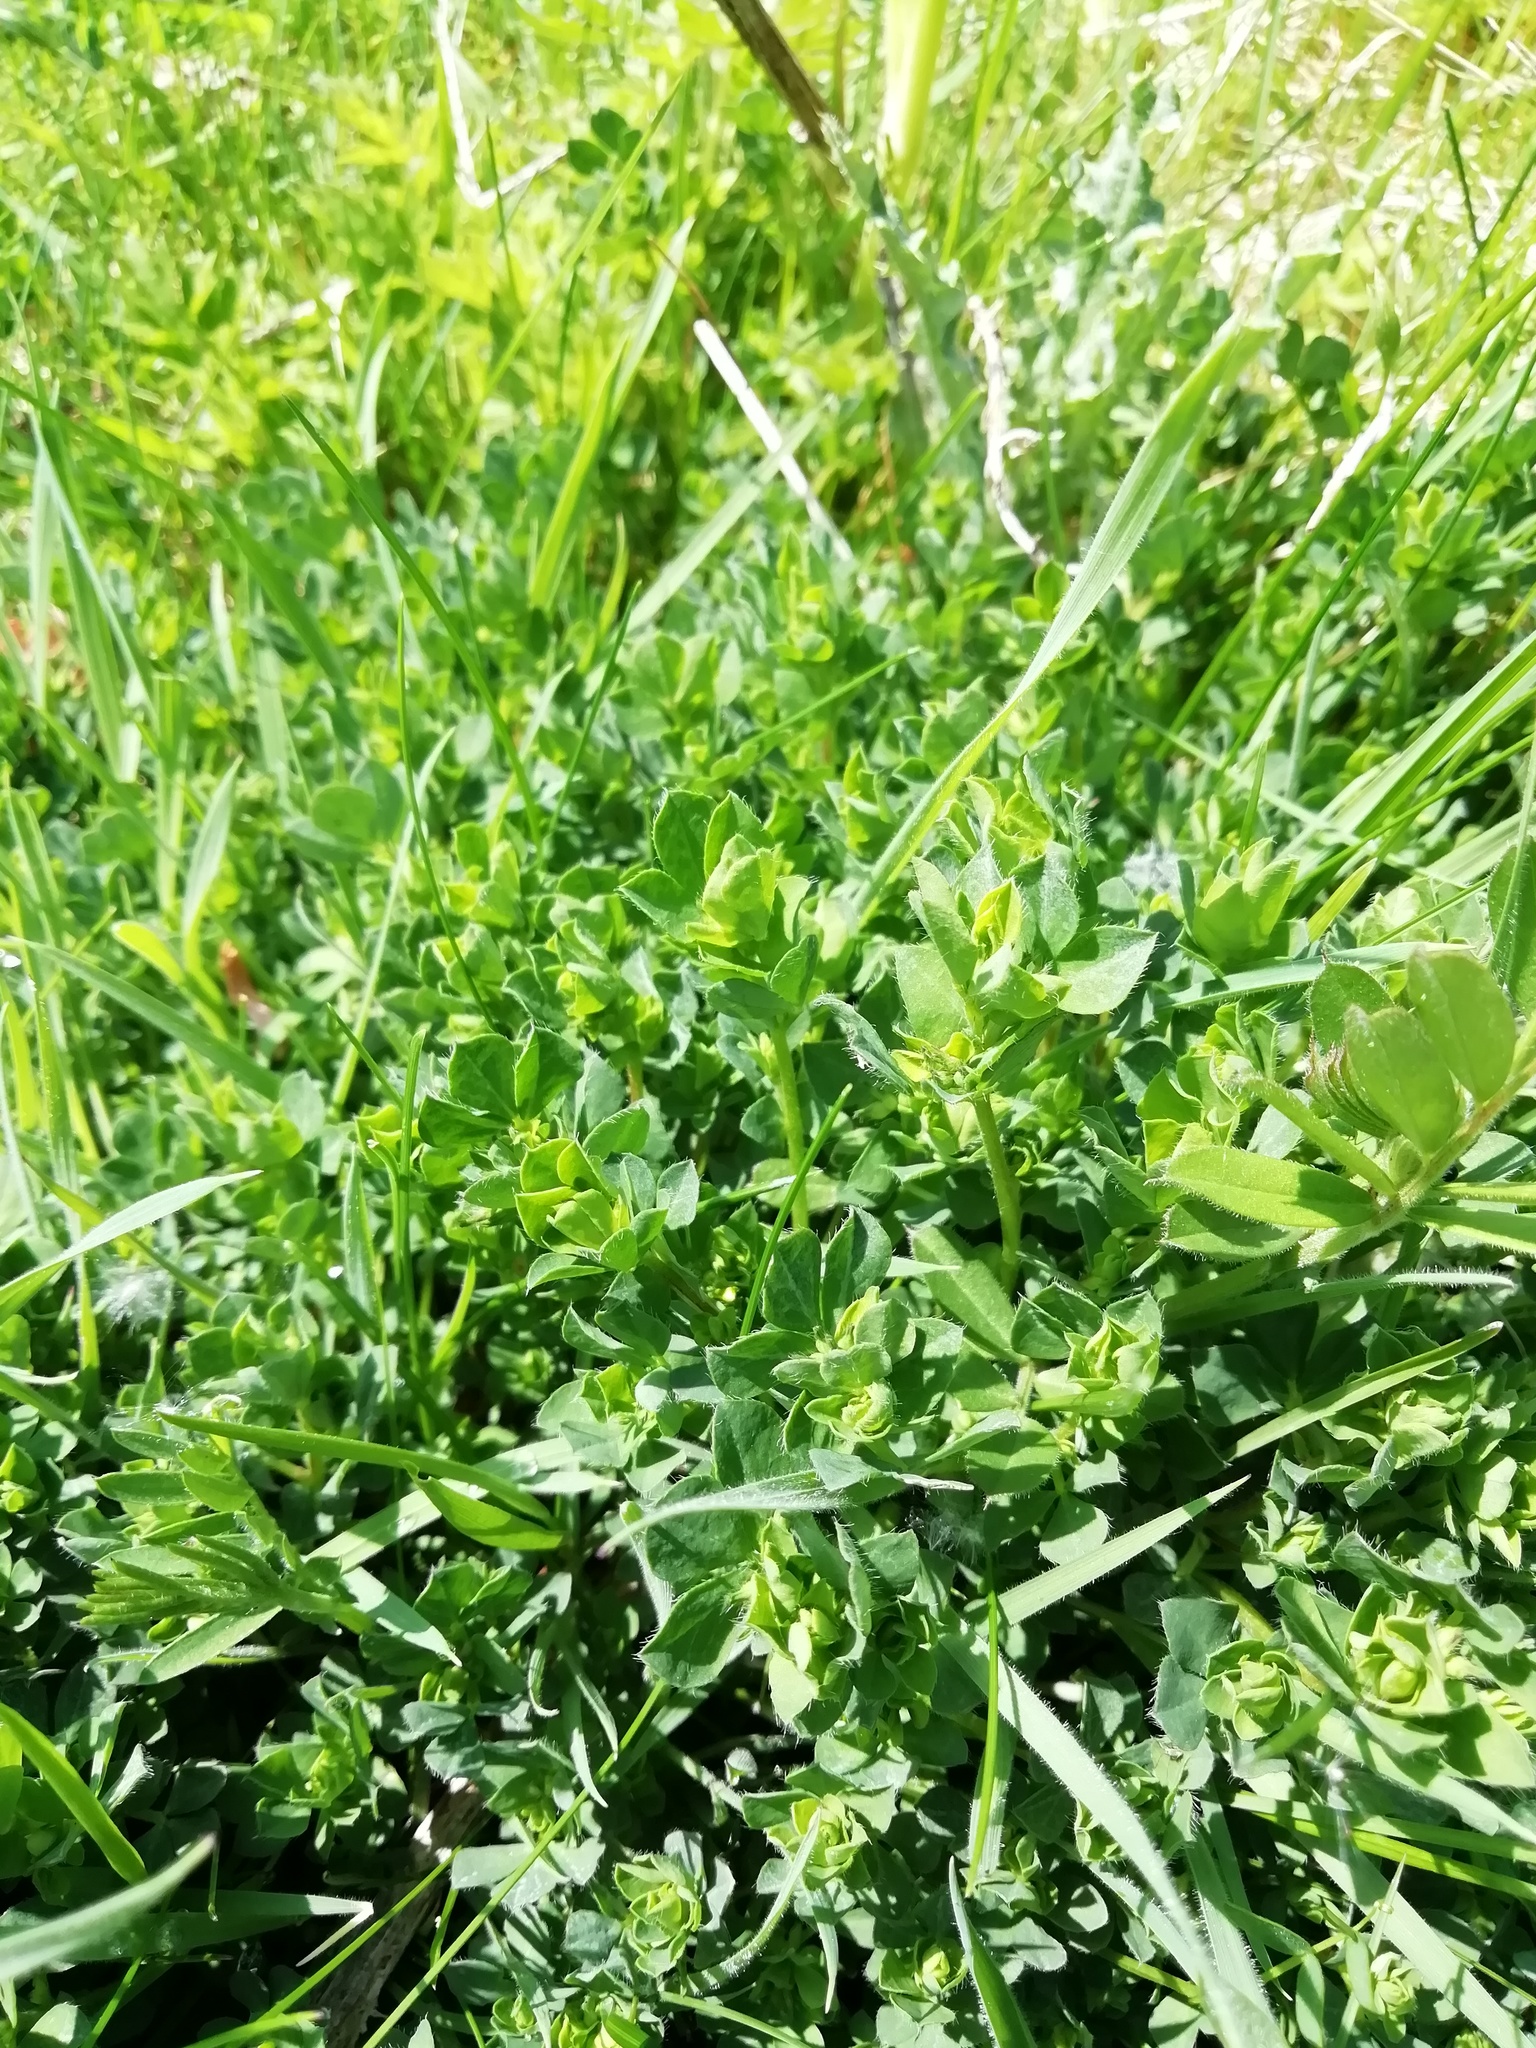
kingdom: Plantae
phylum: Tracheophyta
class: Magnoliopsida
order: Fabales
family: Fabaceae
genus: Lotus
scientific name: Lotus corniculatus
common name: Common bird's-foot-trefoil
